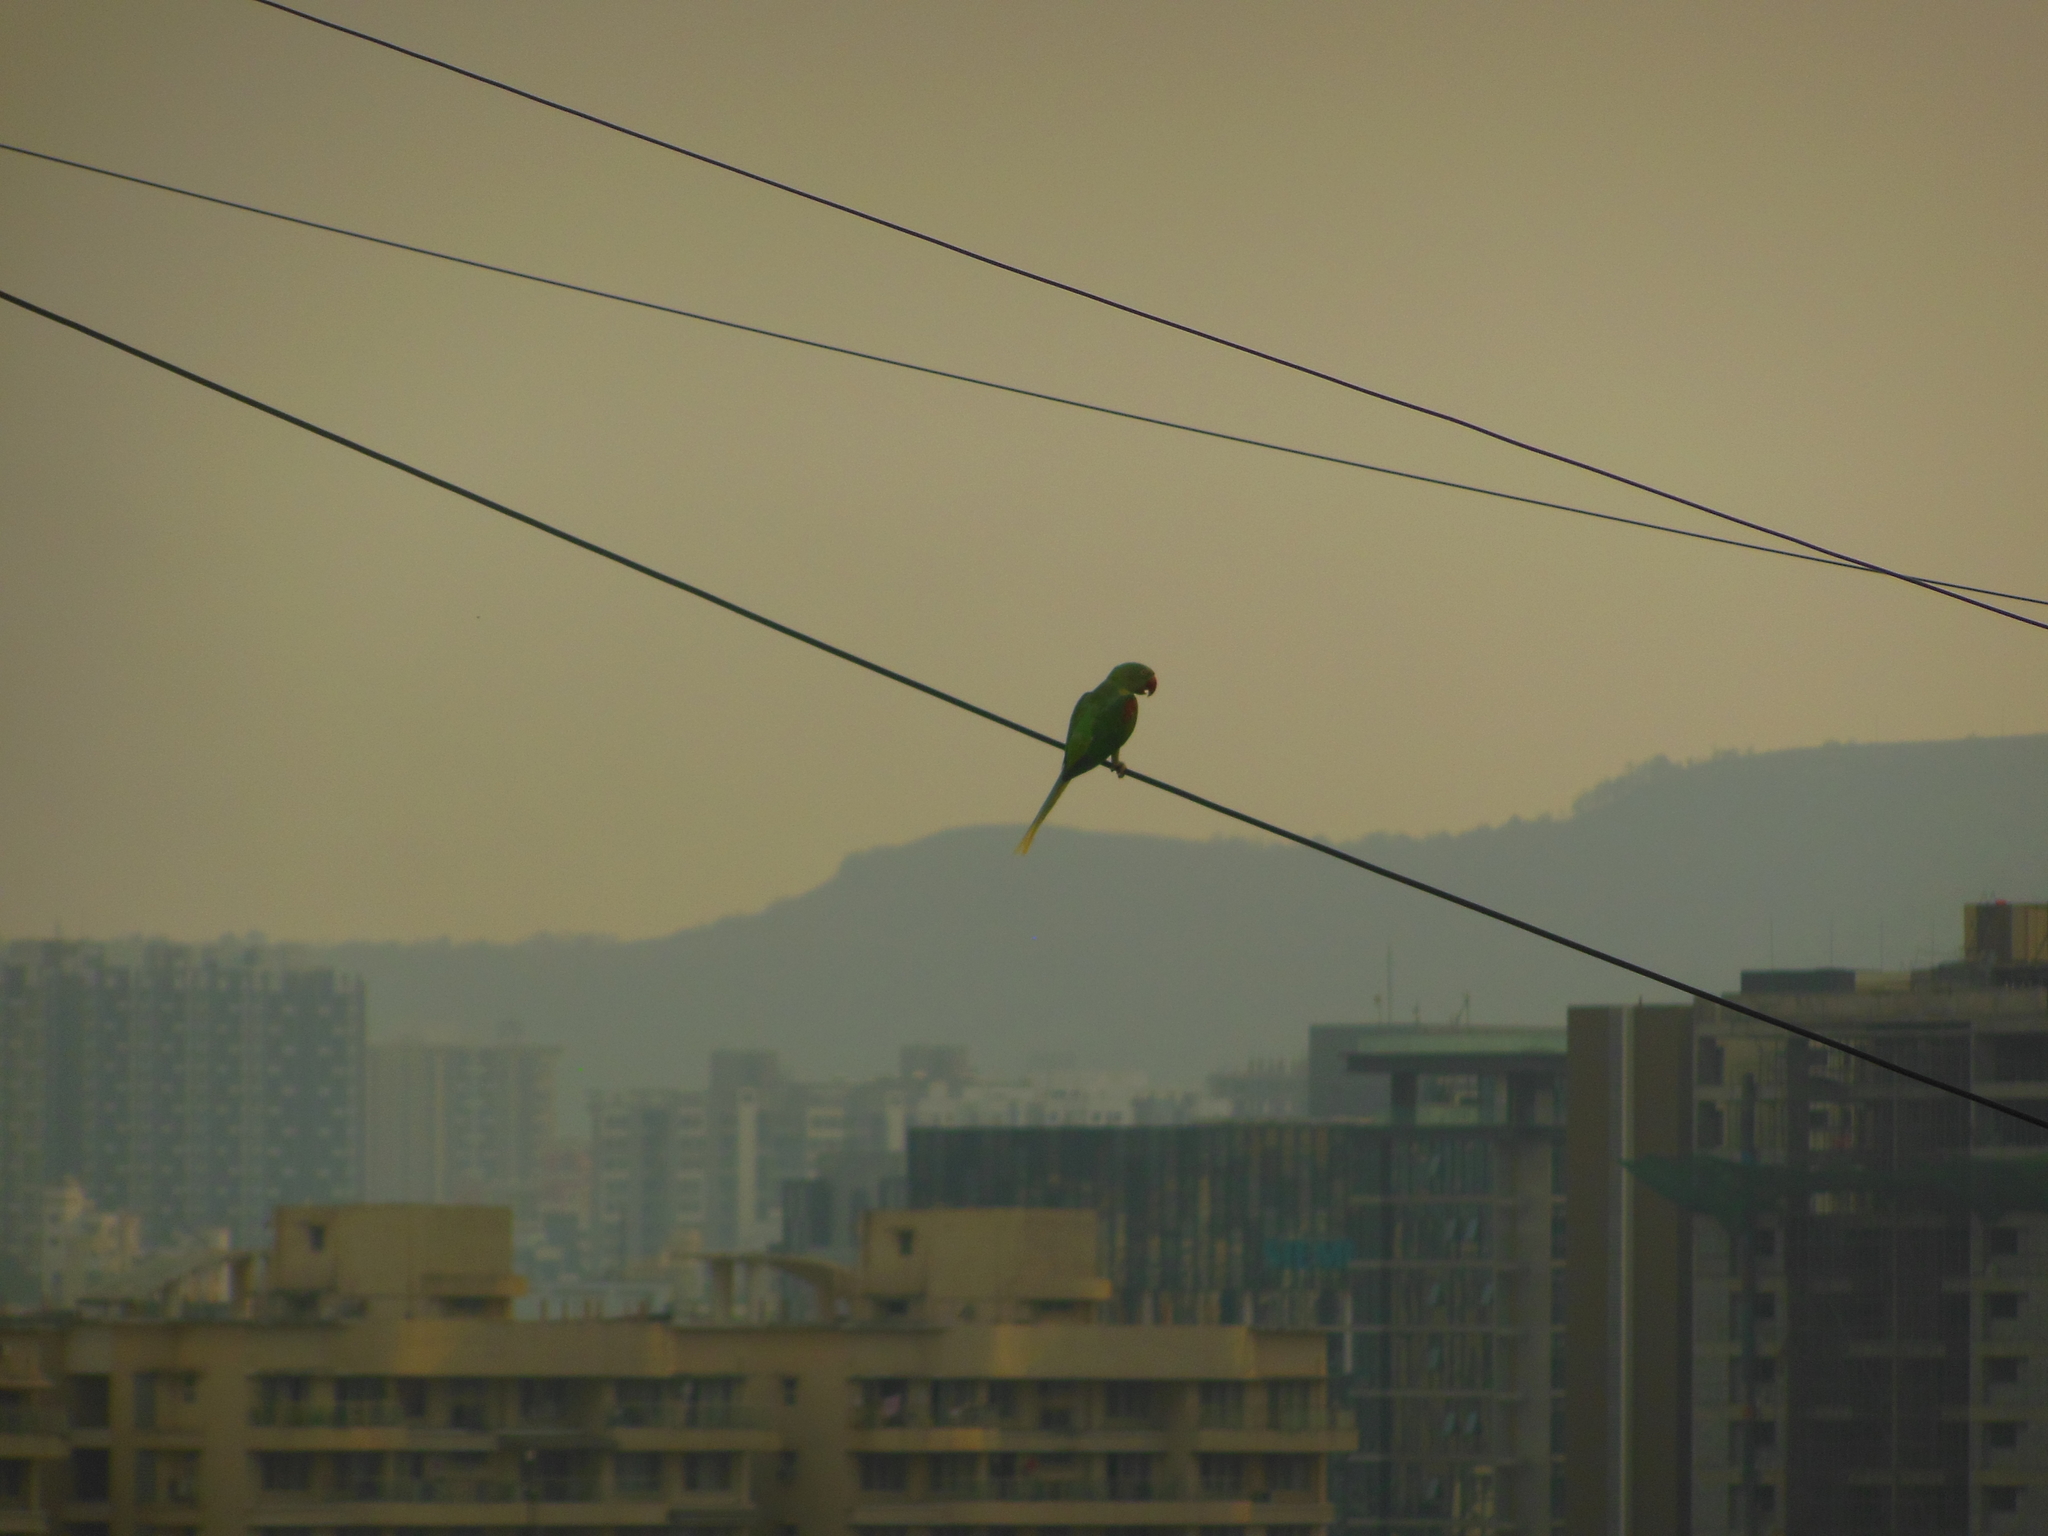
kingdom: Animalia
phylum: Chordata
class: Aves
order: Psittaciformes
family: Psittacidae
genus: Psittacula
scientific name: Psittacula eupatria
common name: Alexandrine parakeet
